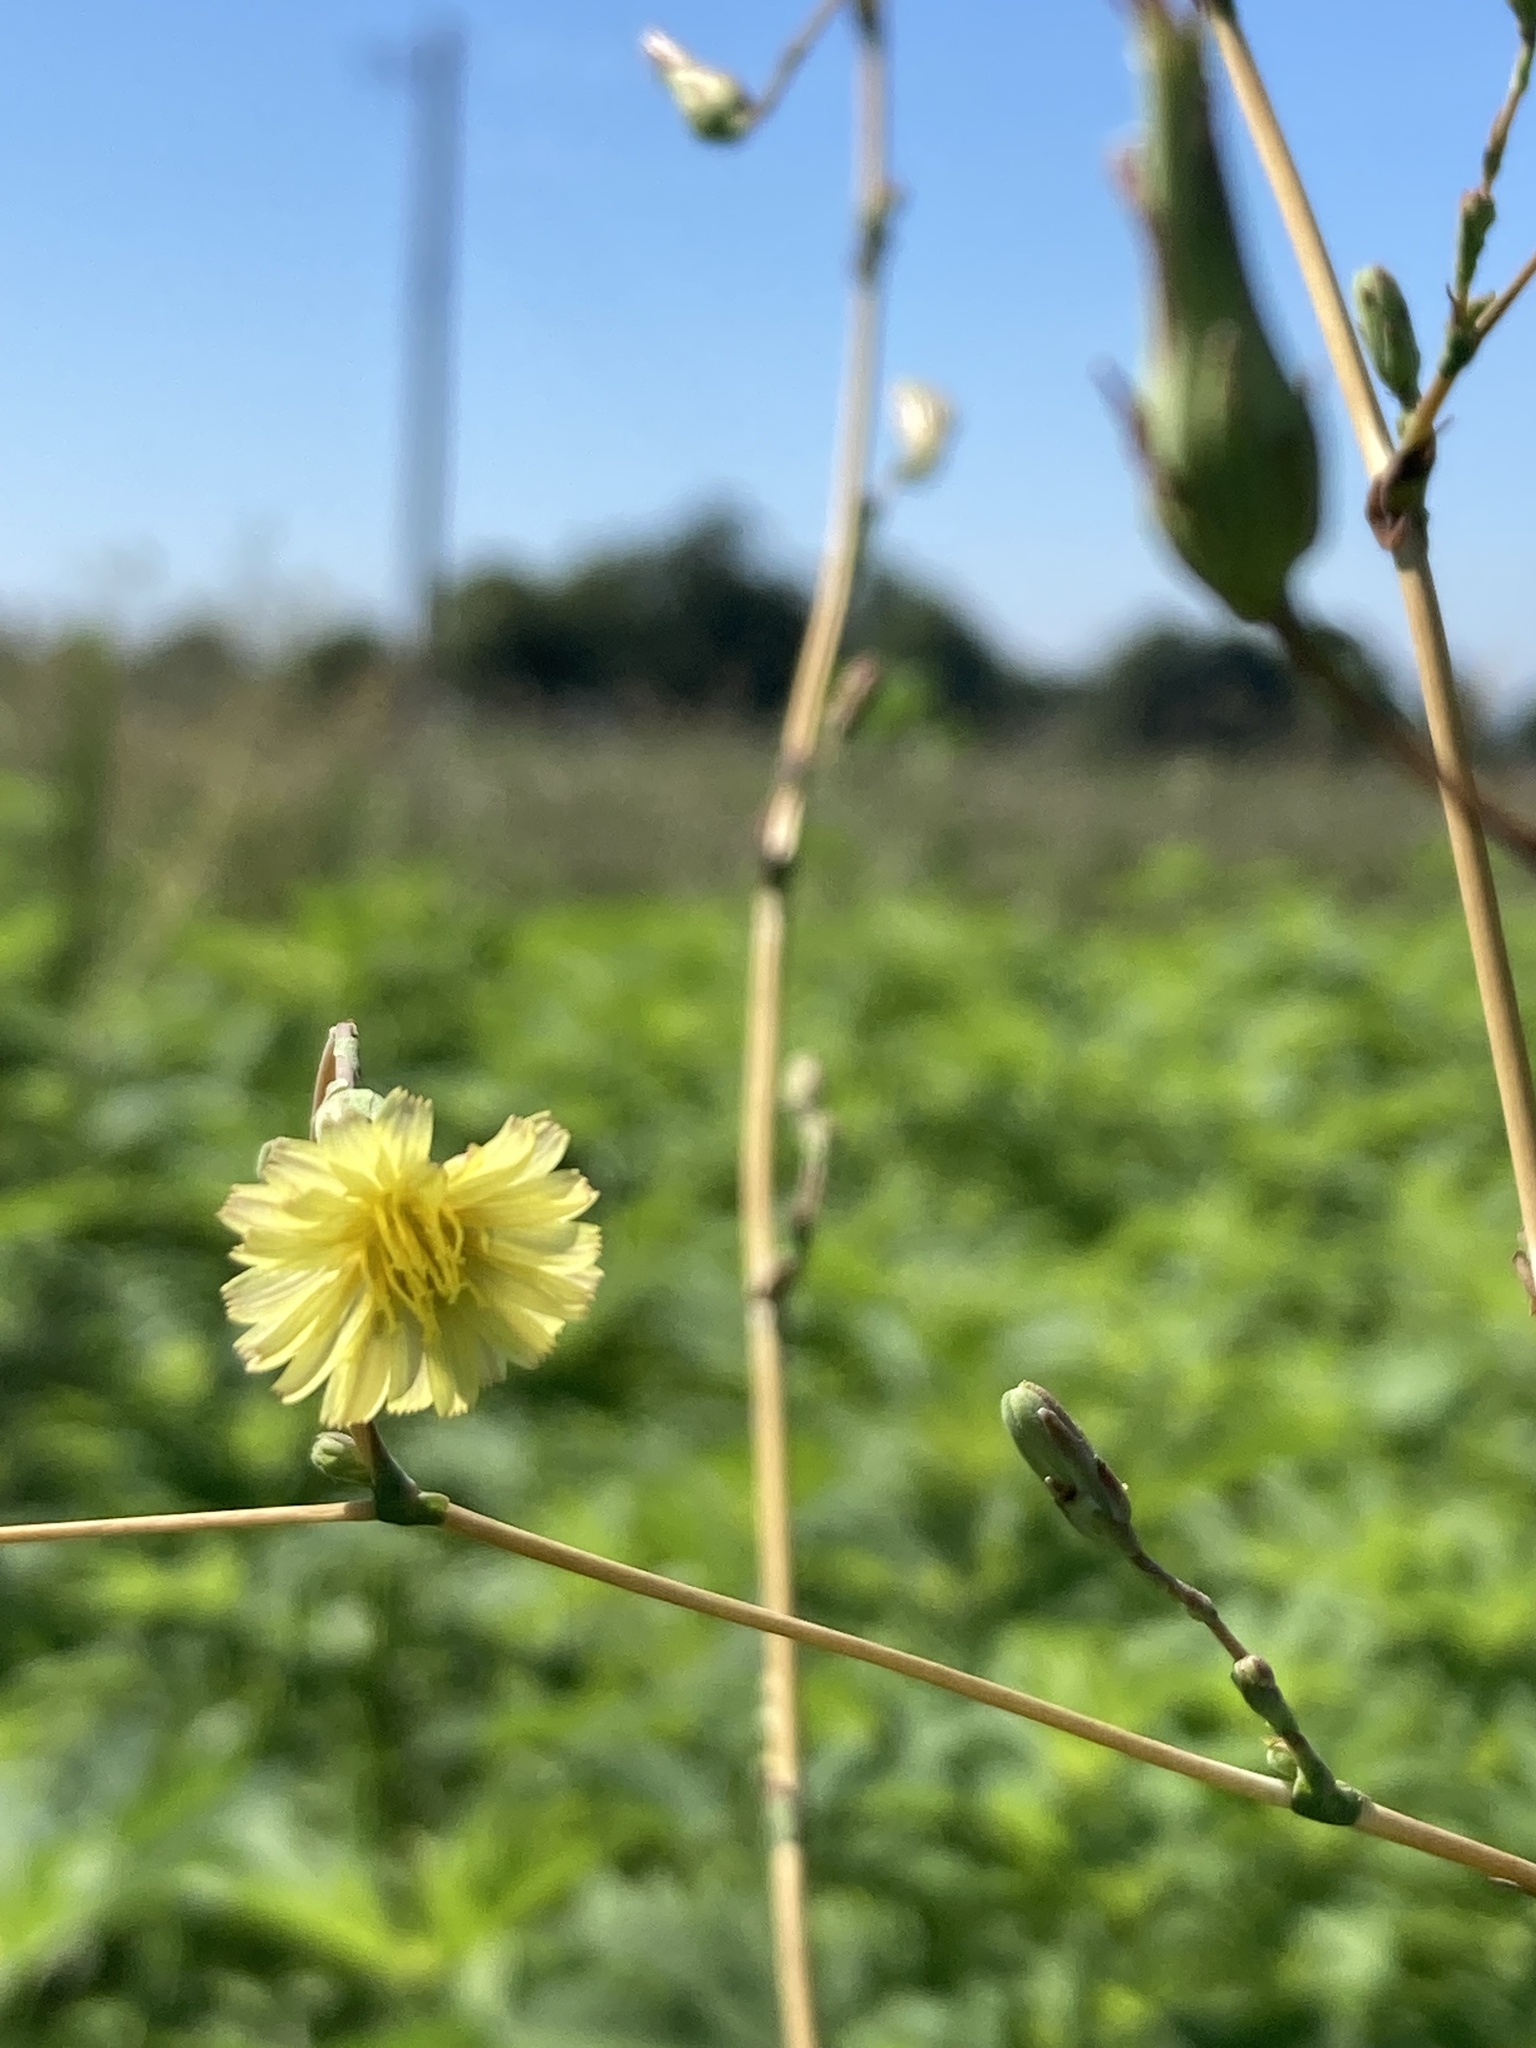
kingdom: Plantae
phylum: Tracheophyta
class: Magnoliopsida
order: Asterales
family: Asteraceae
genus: Lactuca
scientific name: Lactuca serriola
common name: Prickly lettuce
